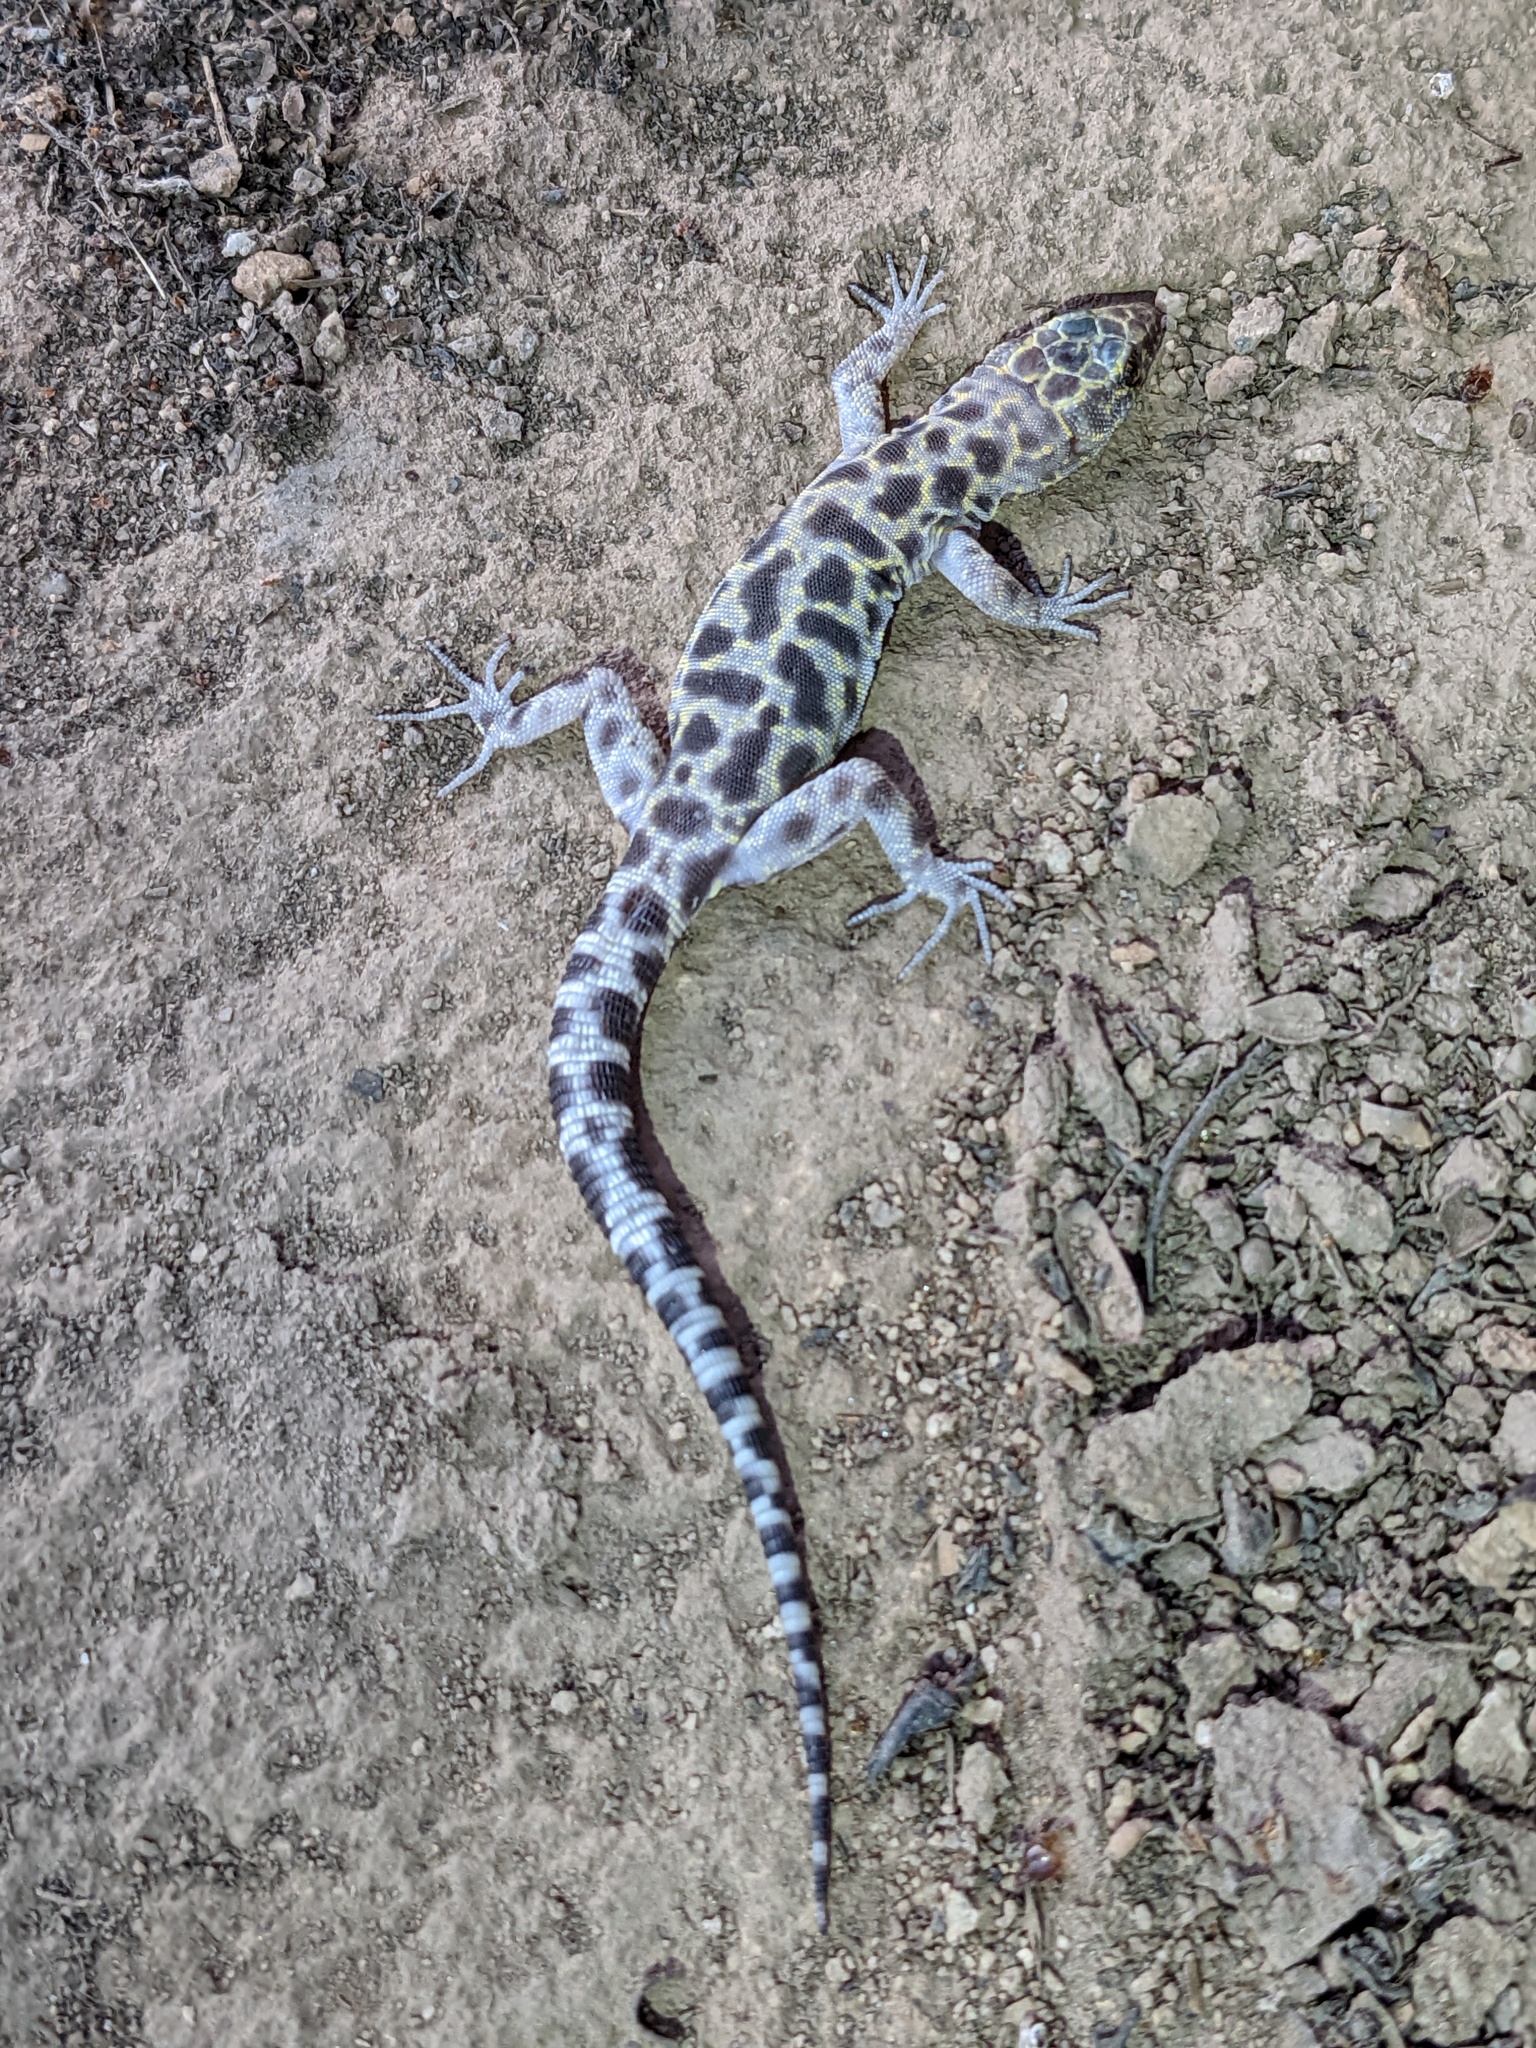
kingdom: Animalia
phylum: Chordata
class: Squamata
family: Xantusiidae
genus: Xantusia
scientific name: Xantusia henshawi
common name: Granite night lizard
